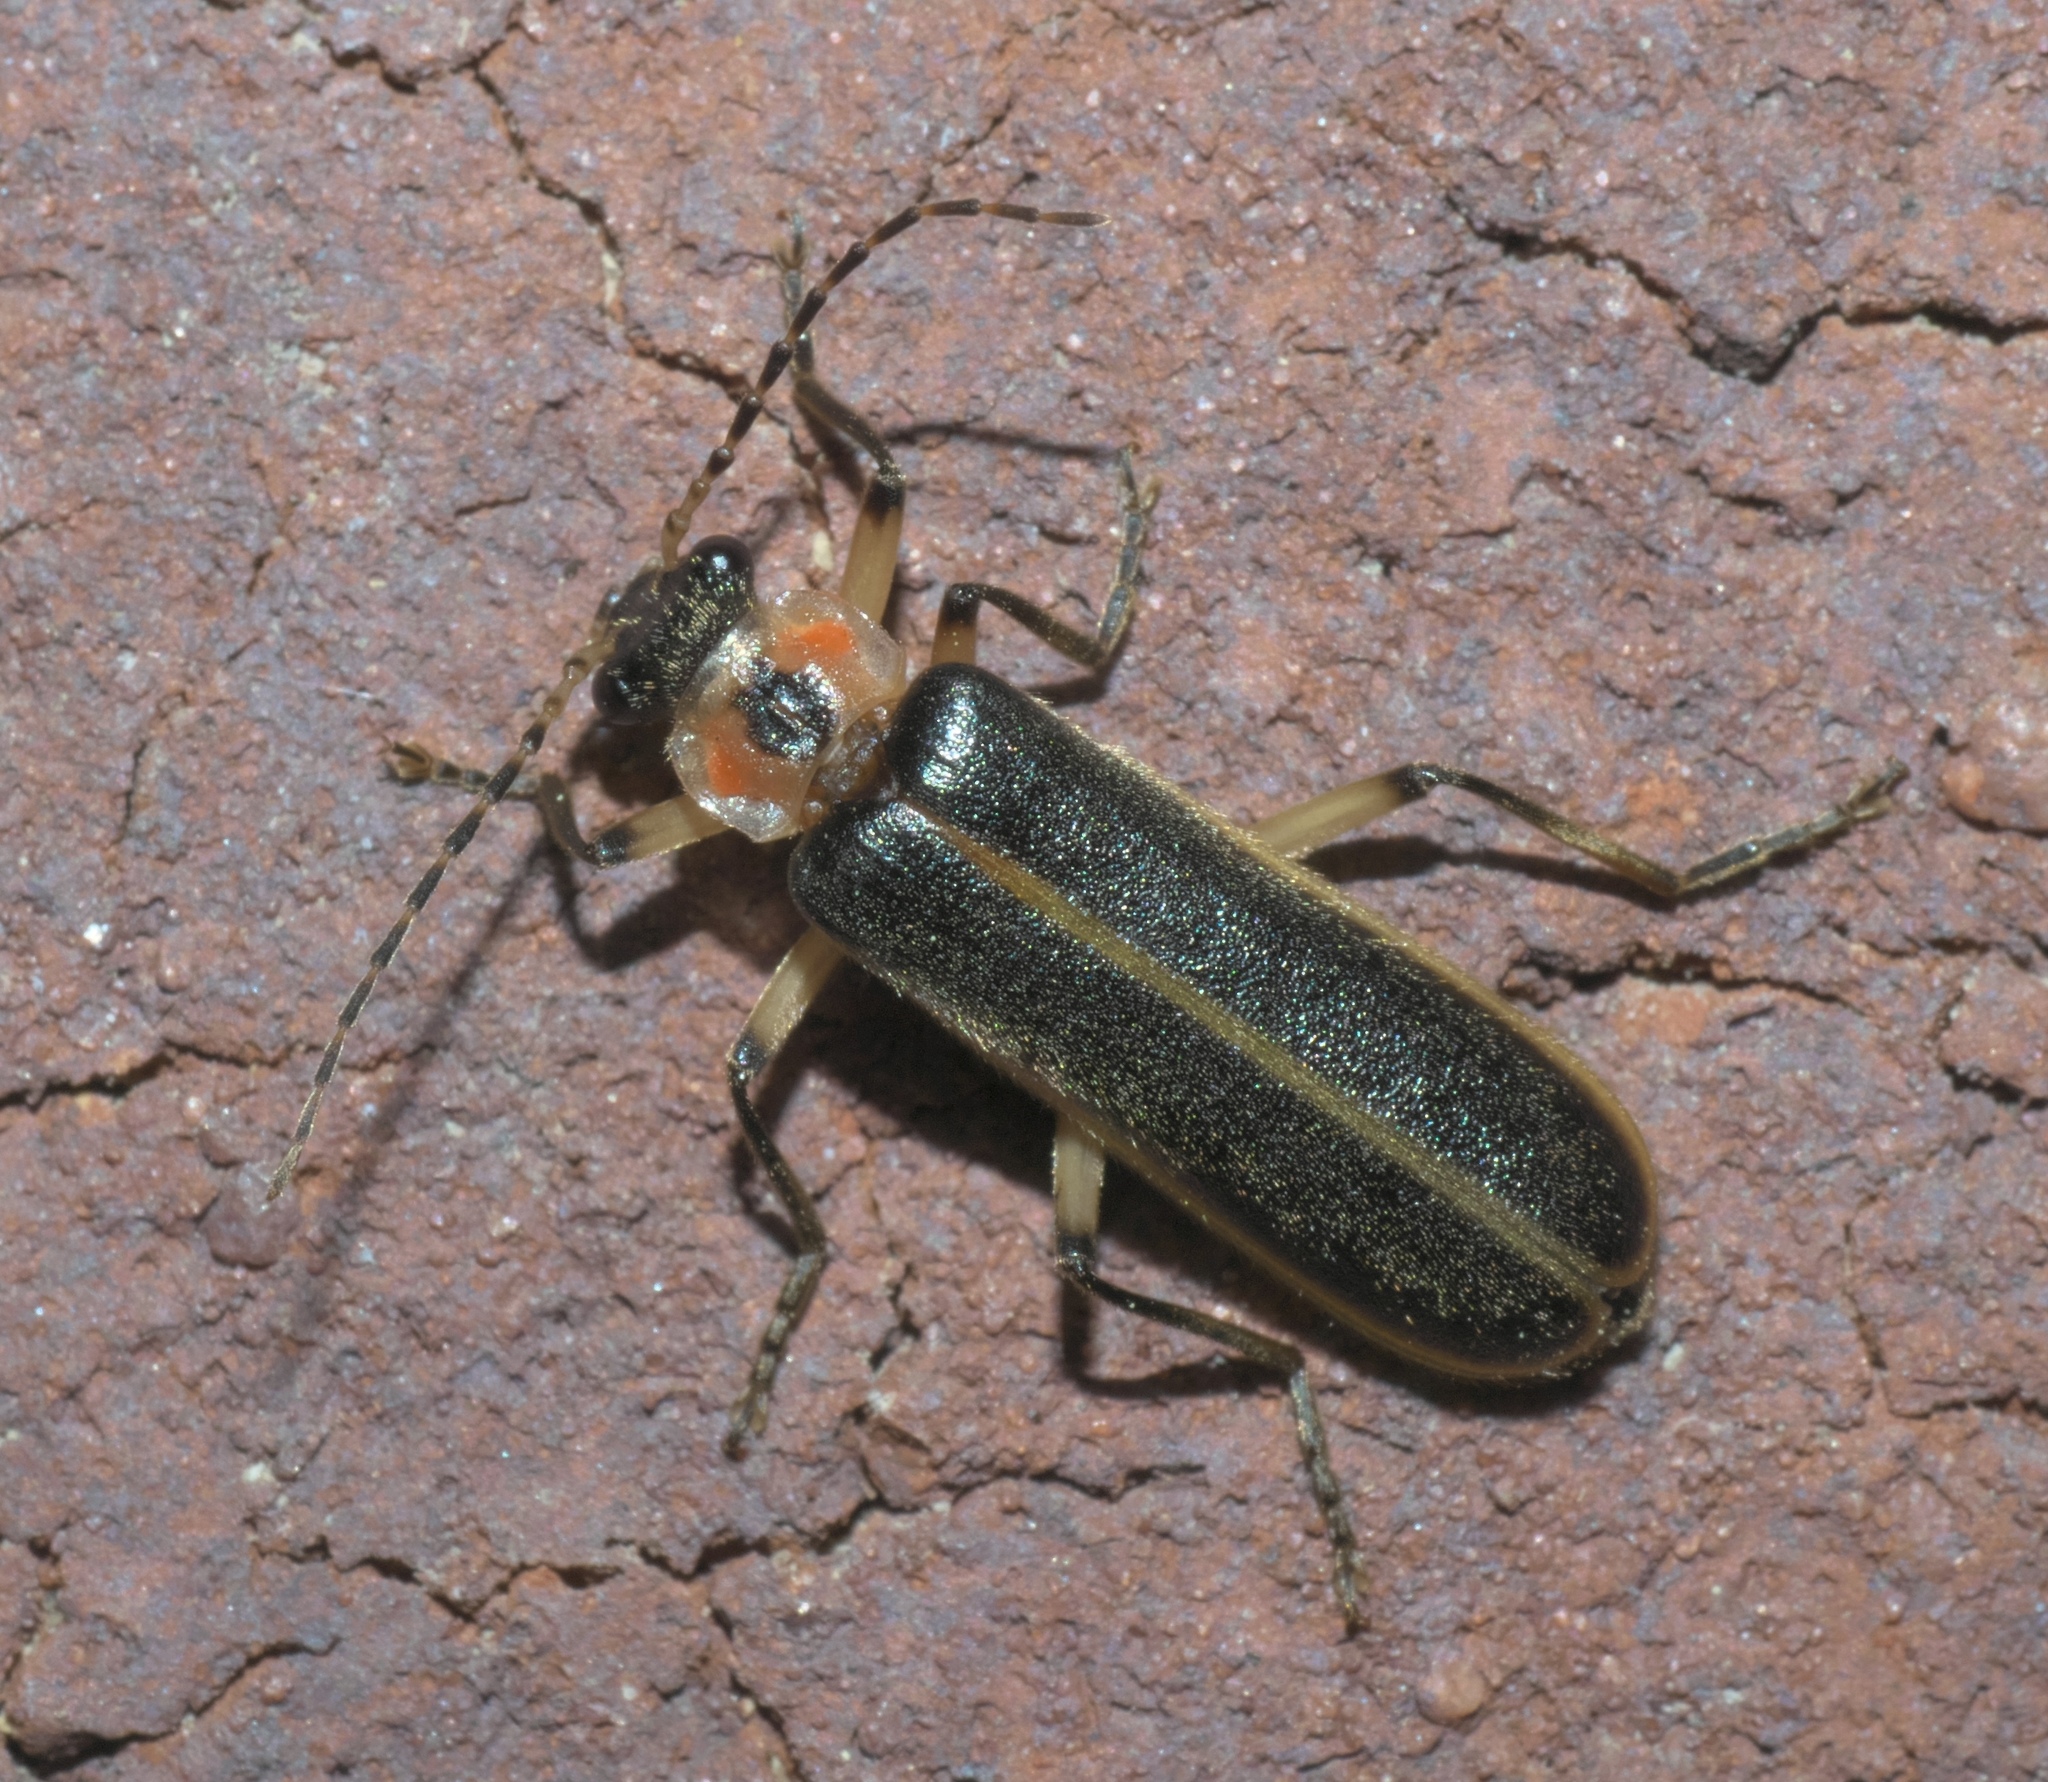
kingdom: Animalia
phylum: Arthropoda
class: Insecta
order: Coleoptera
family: Cantharidae
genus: Podabrus
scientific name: Podabrus basilaris
